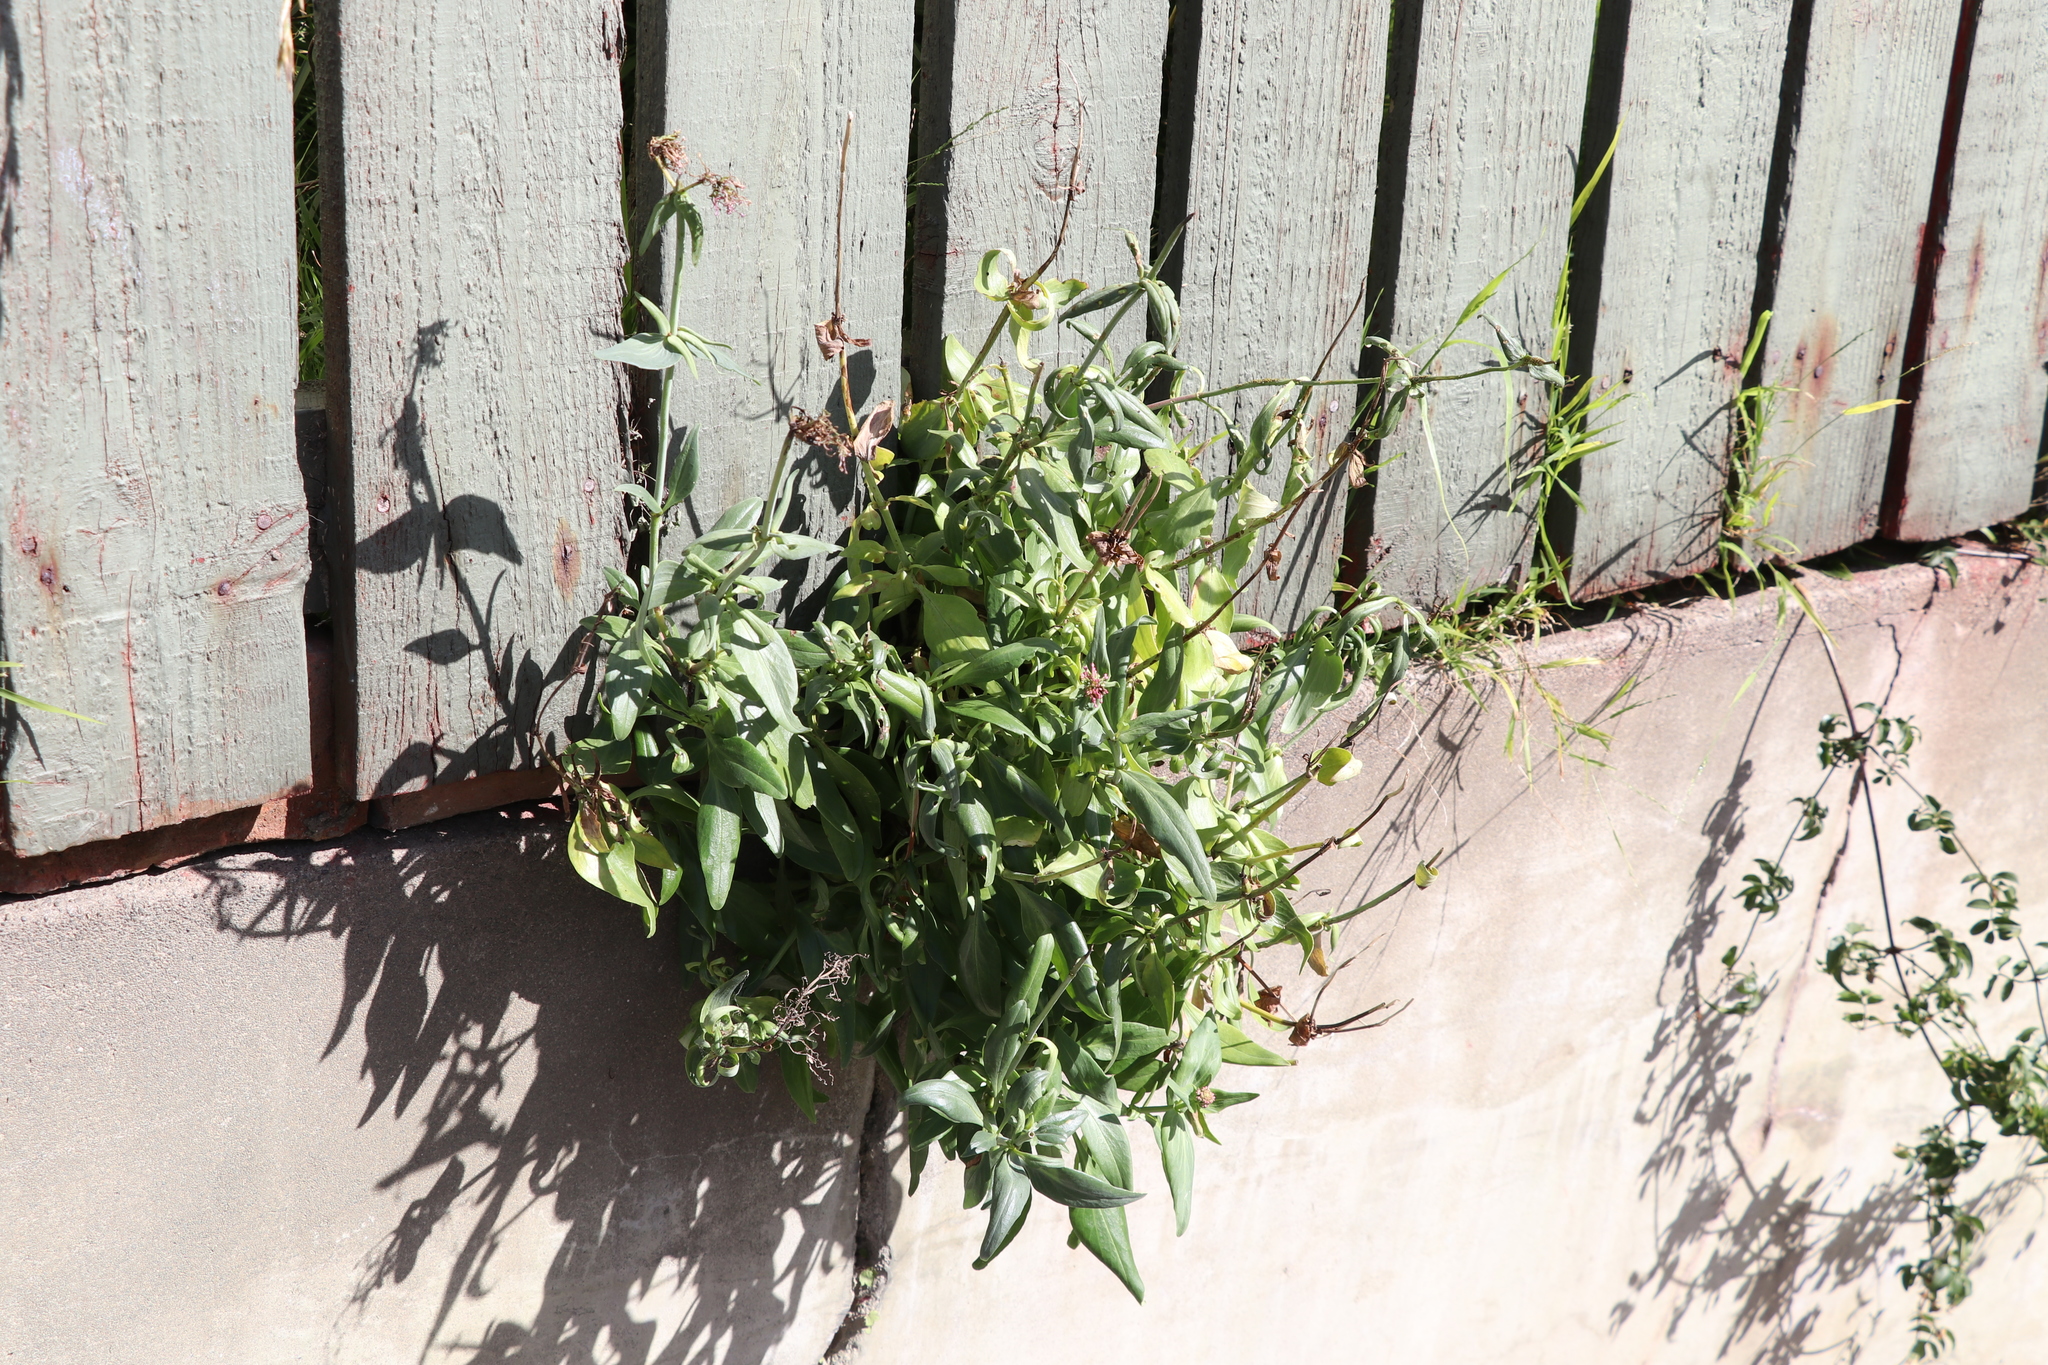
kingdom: Plantae
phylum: Tracheophyta
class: Magnoliopsida
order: Dipsacales
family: Caprifoliaceae
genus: Centranthus
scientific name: Centranthus ruber
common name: Red valerian
